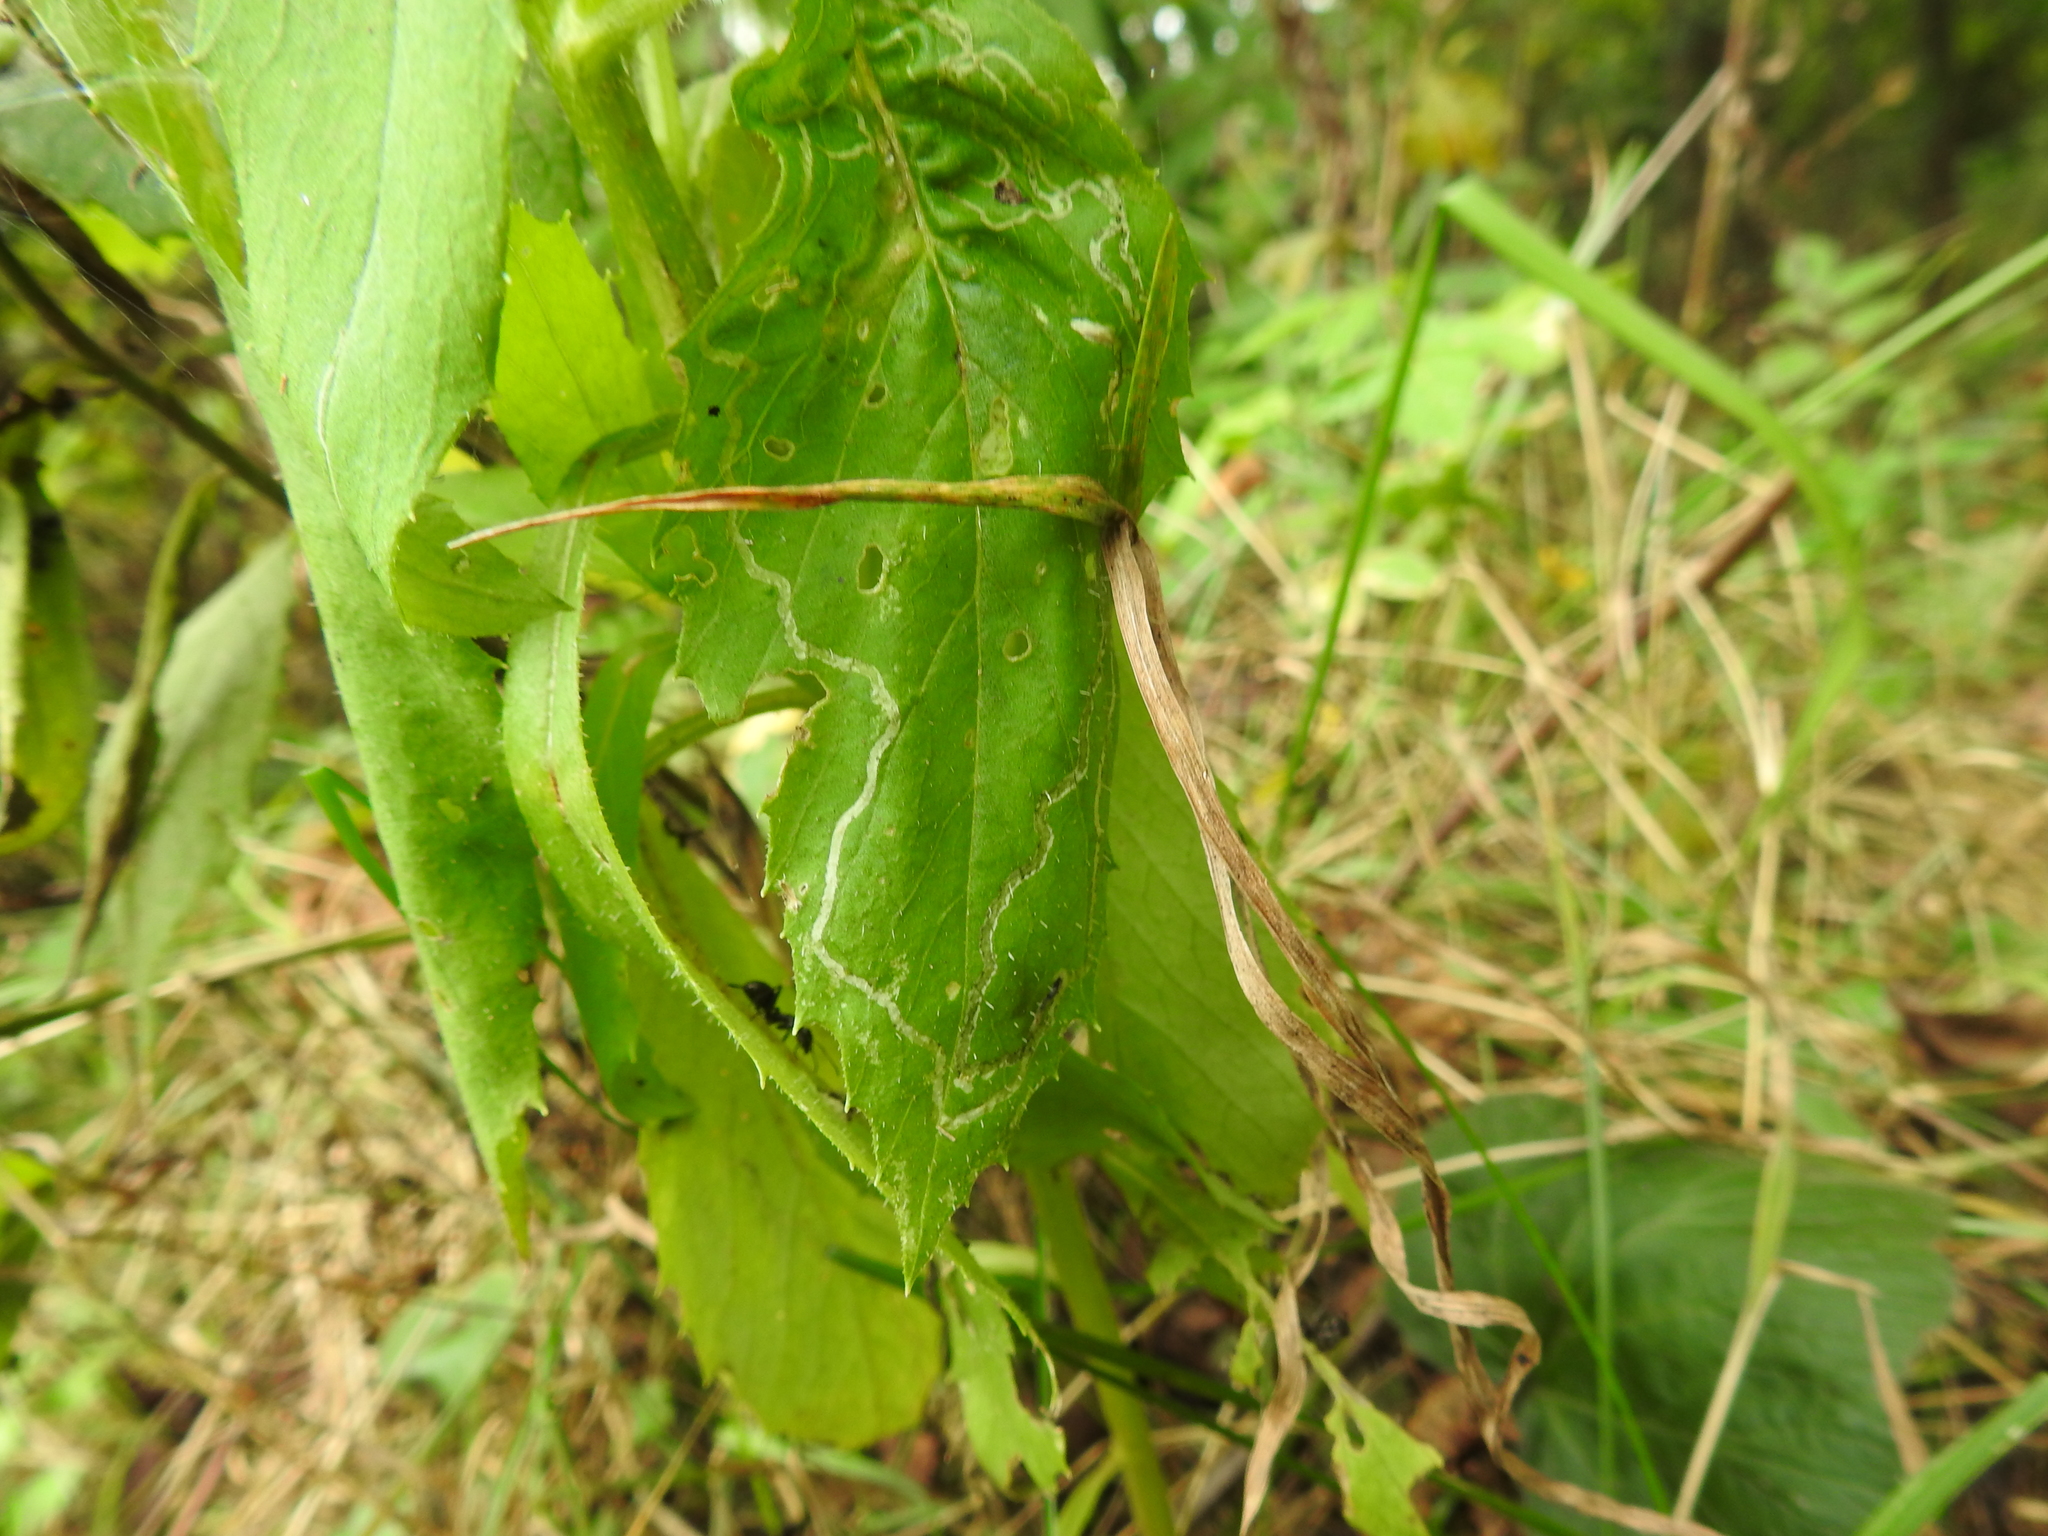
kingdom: Animalia
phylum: Arthropoda
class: Insecta
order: Lepidoptera
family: Gracillariidae
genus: Phyllocnistis
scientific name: Phyllocnistis insignis
